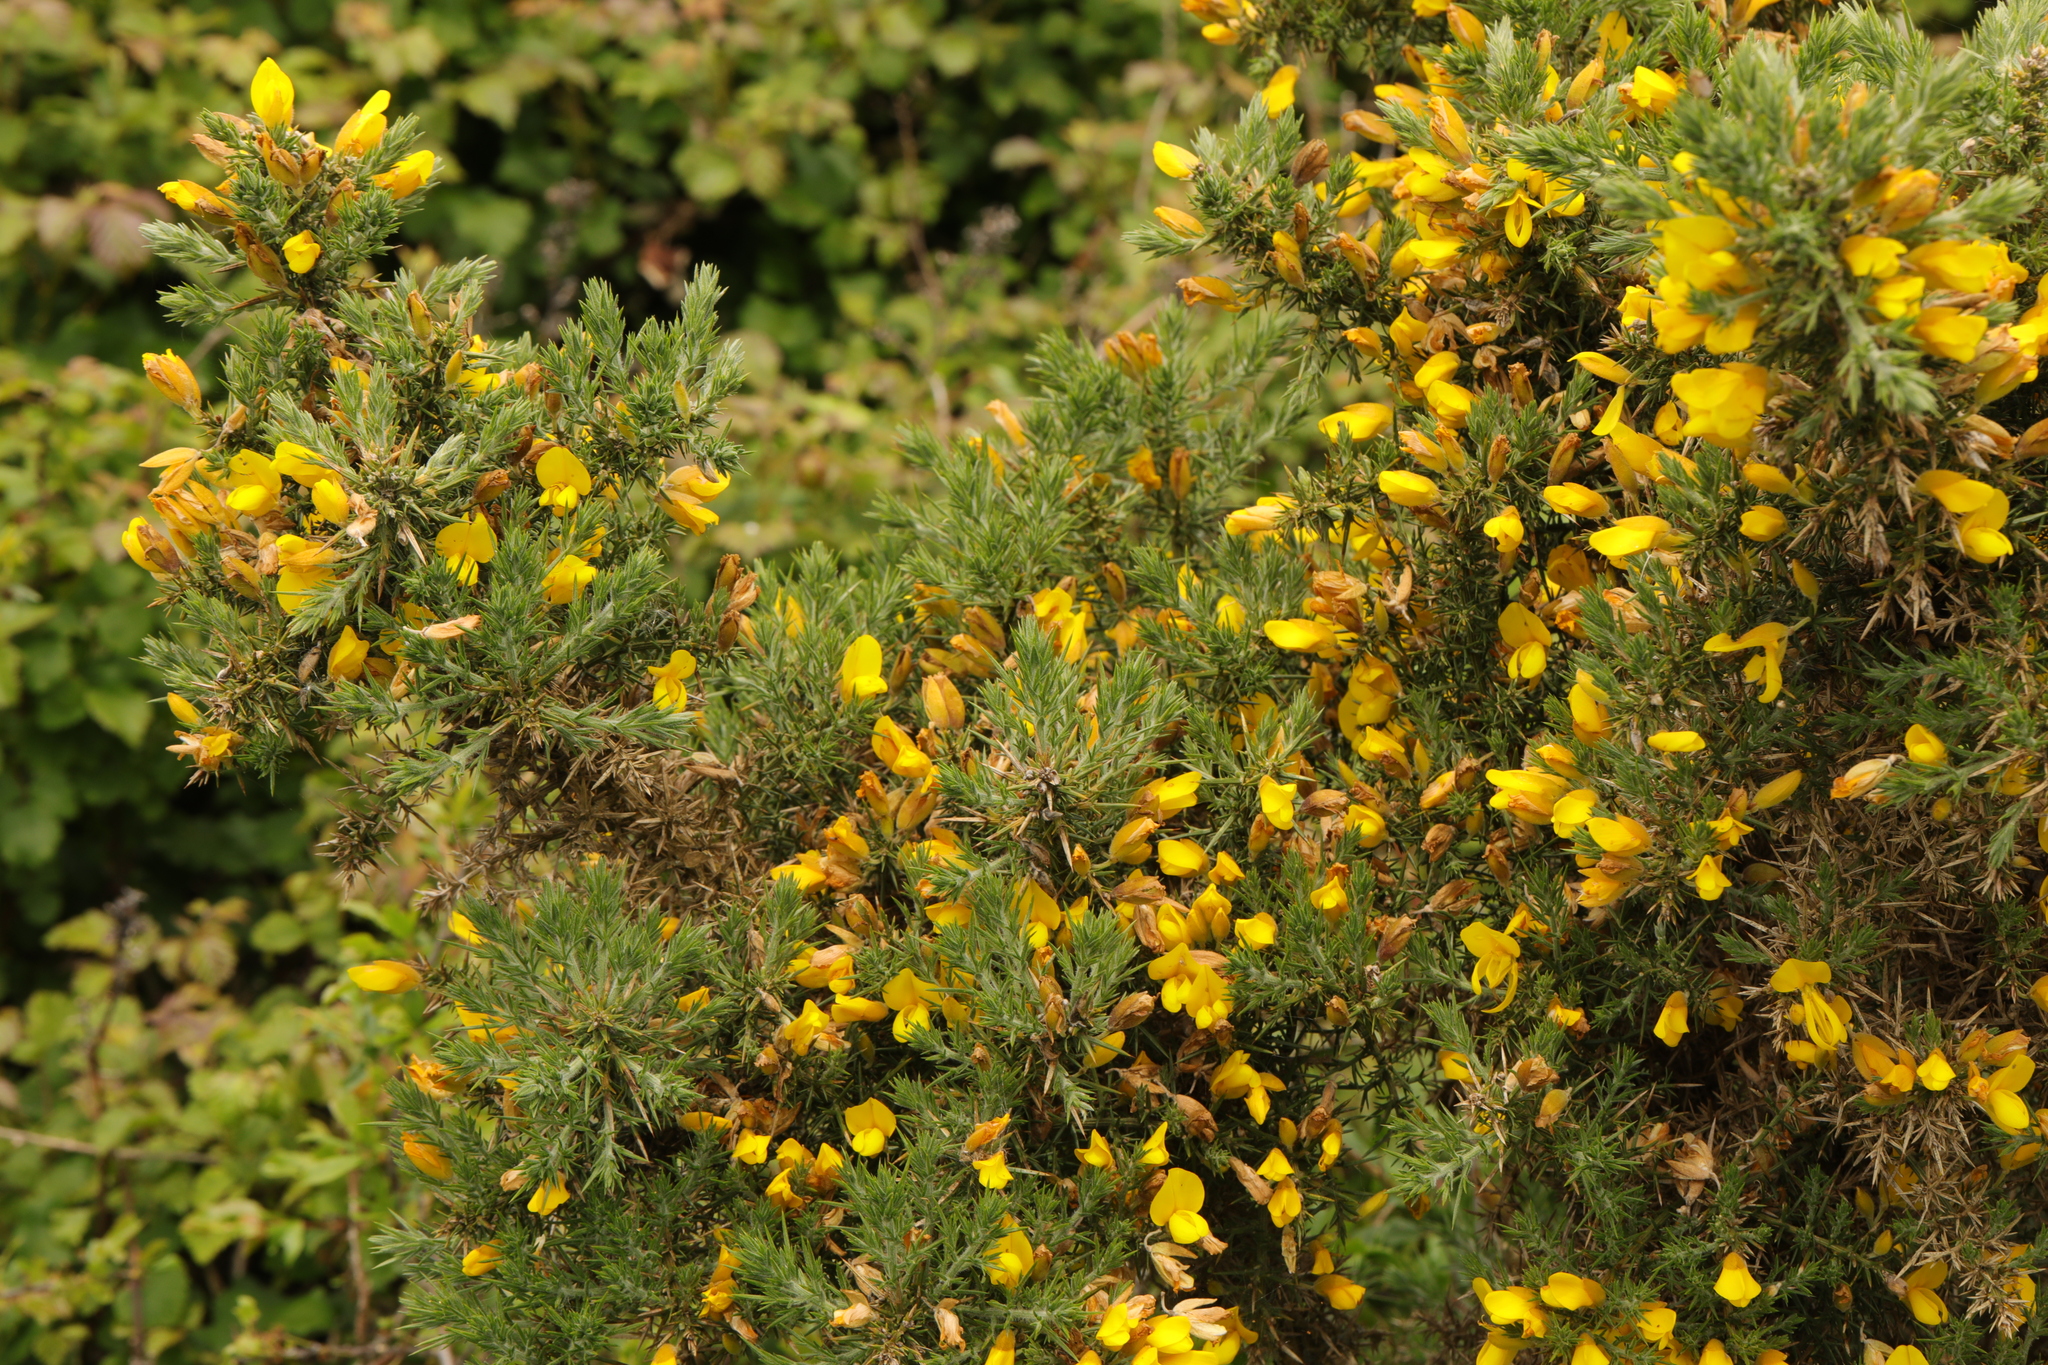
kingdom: Plantae
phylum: Tracheophyta
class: Magnoliopsida
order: Fabales
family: Fabaceae
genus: Ulex
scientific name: Ulex europaeus
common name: Common gorse
